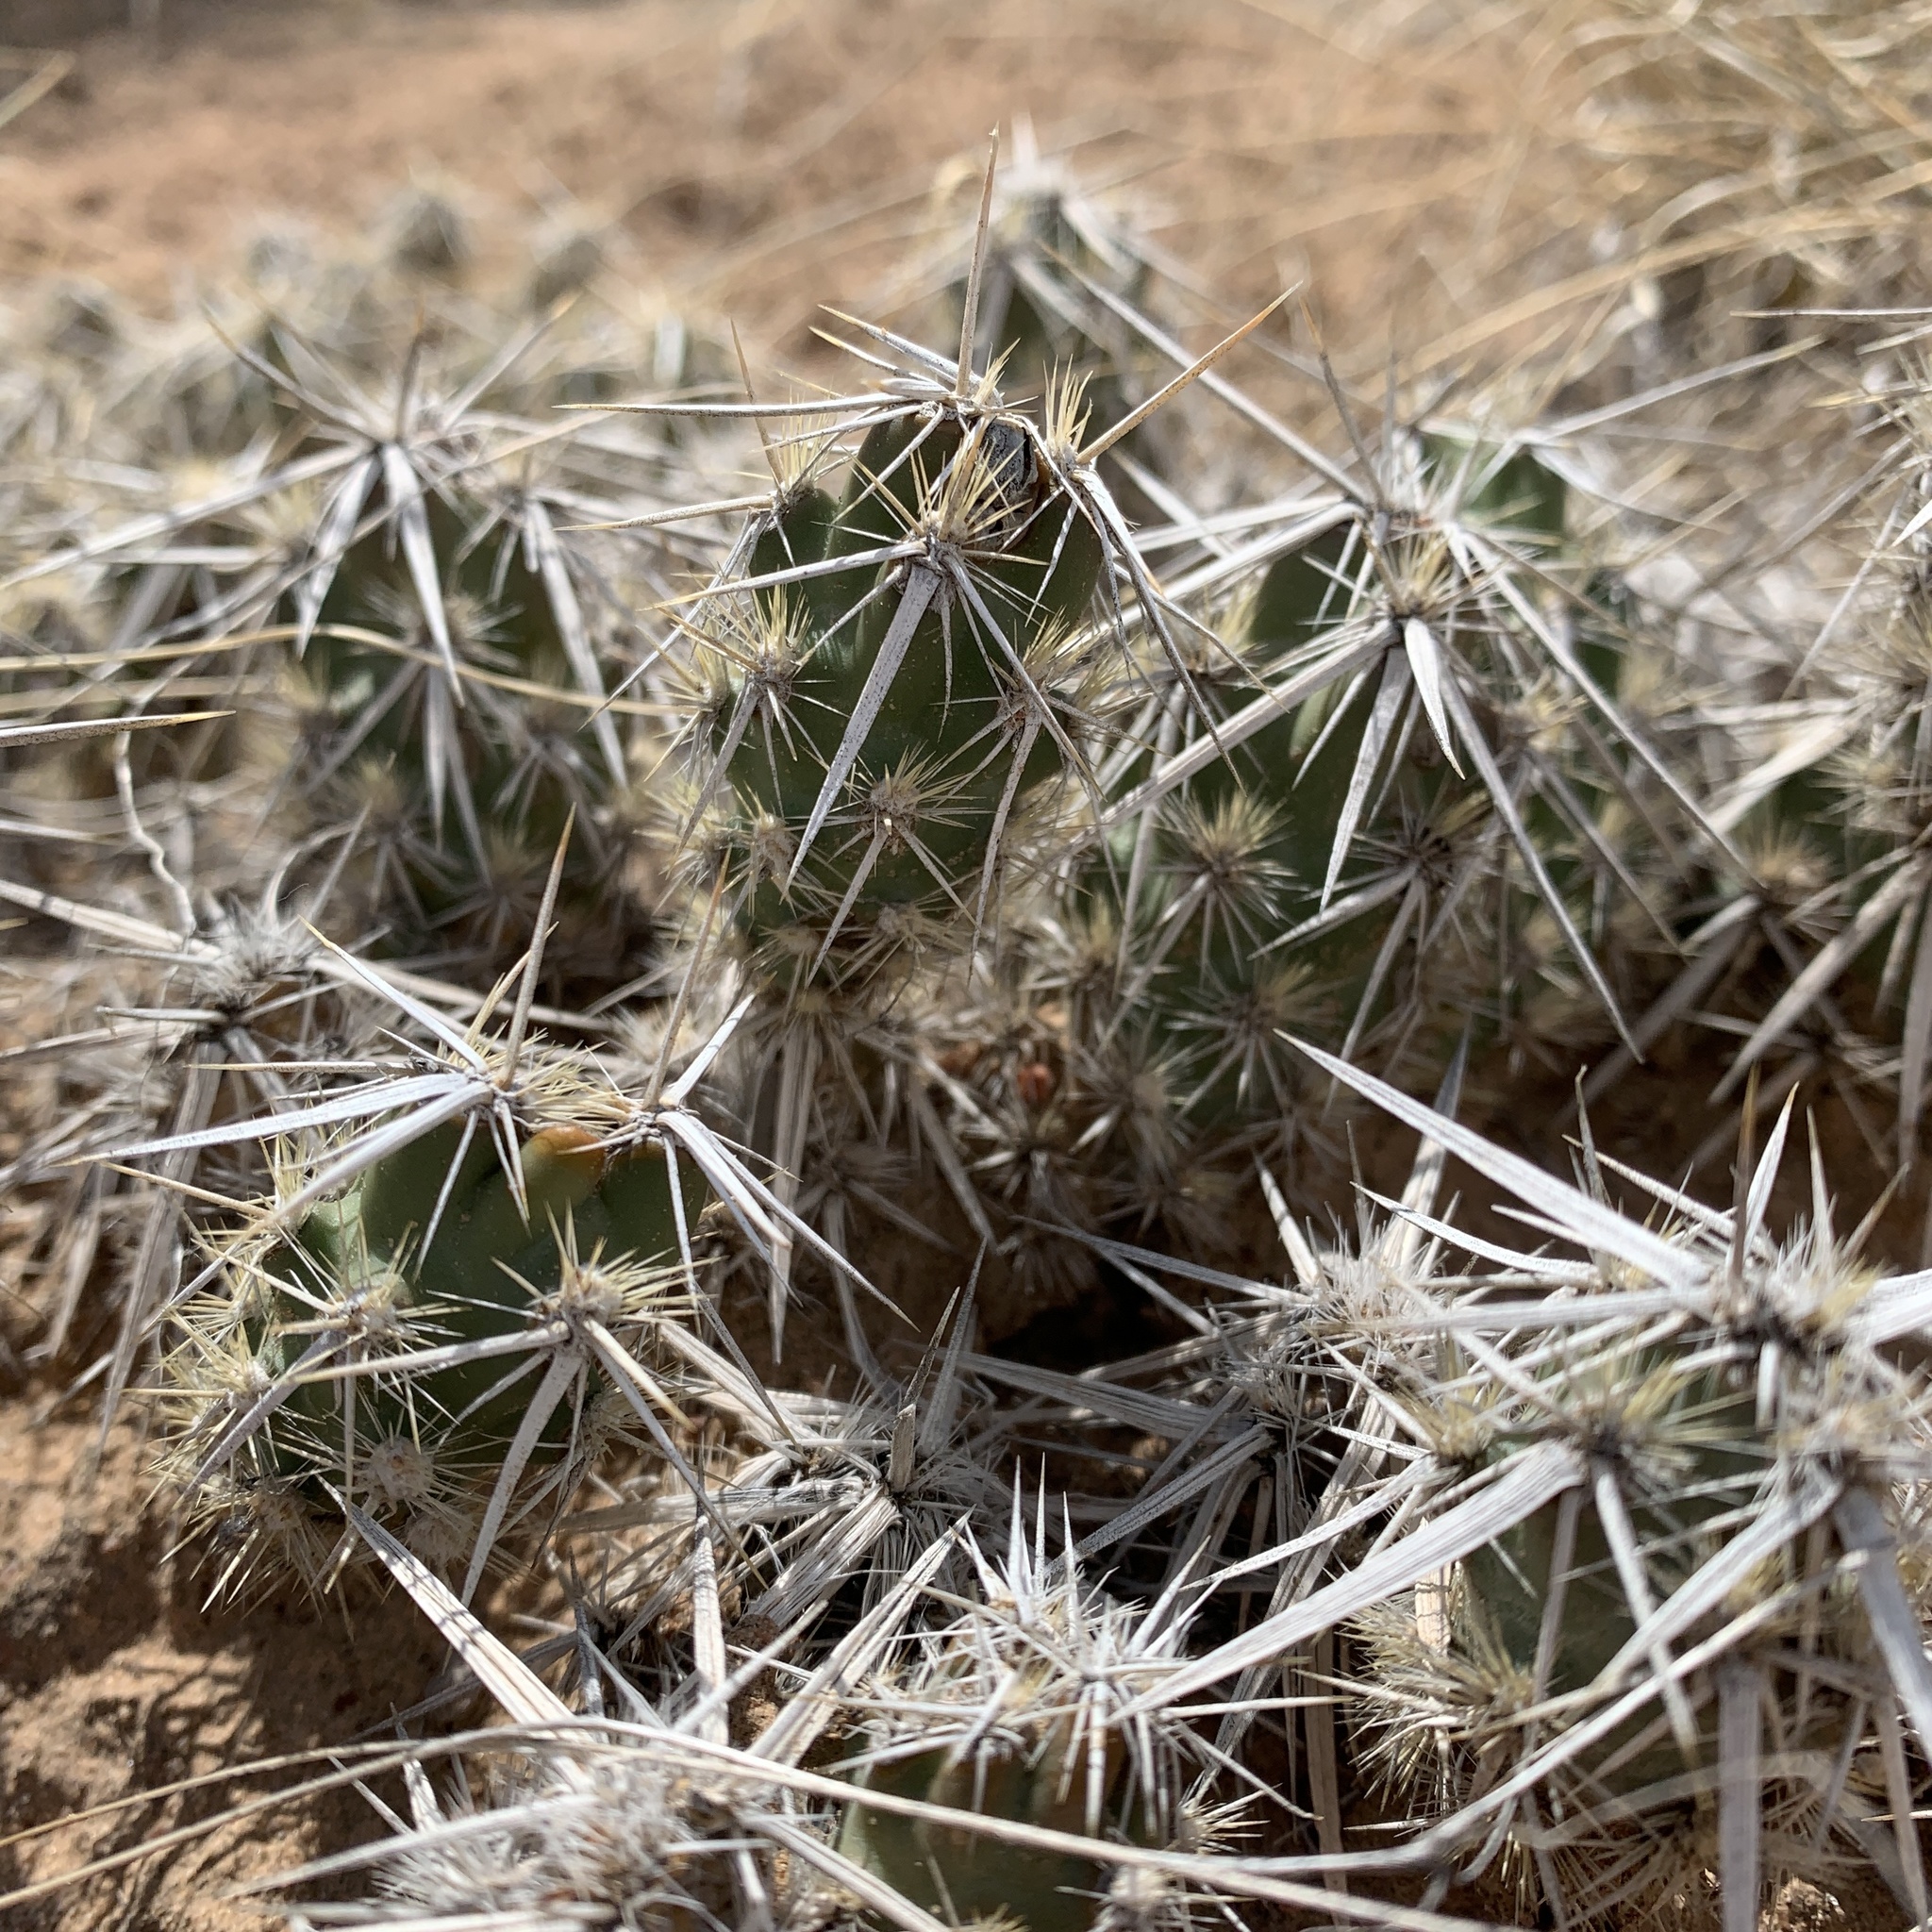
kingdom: Plantae
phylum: Tracheophyta
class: Magnoliopsida
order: Caryophyllales
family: Cactaceae
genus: Grusonia
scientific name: Grusonia clavata
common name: Club cholla
